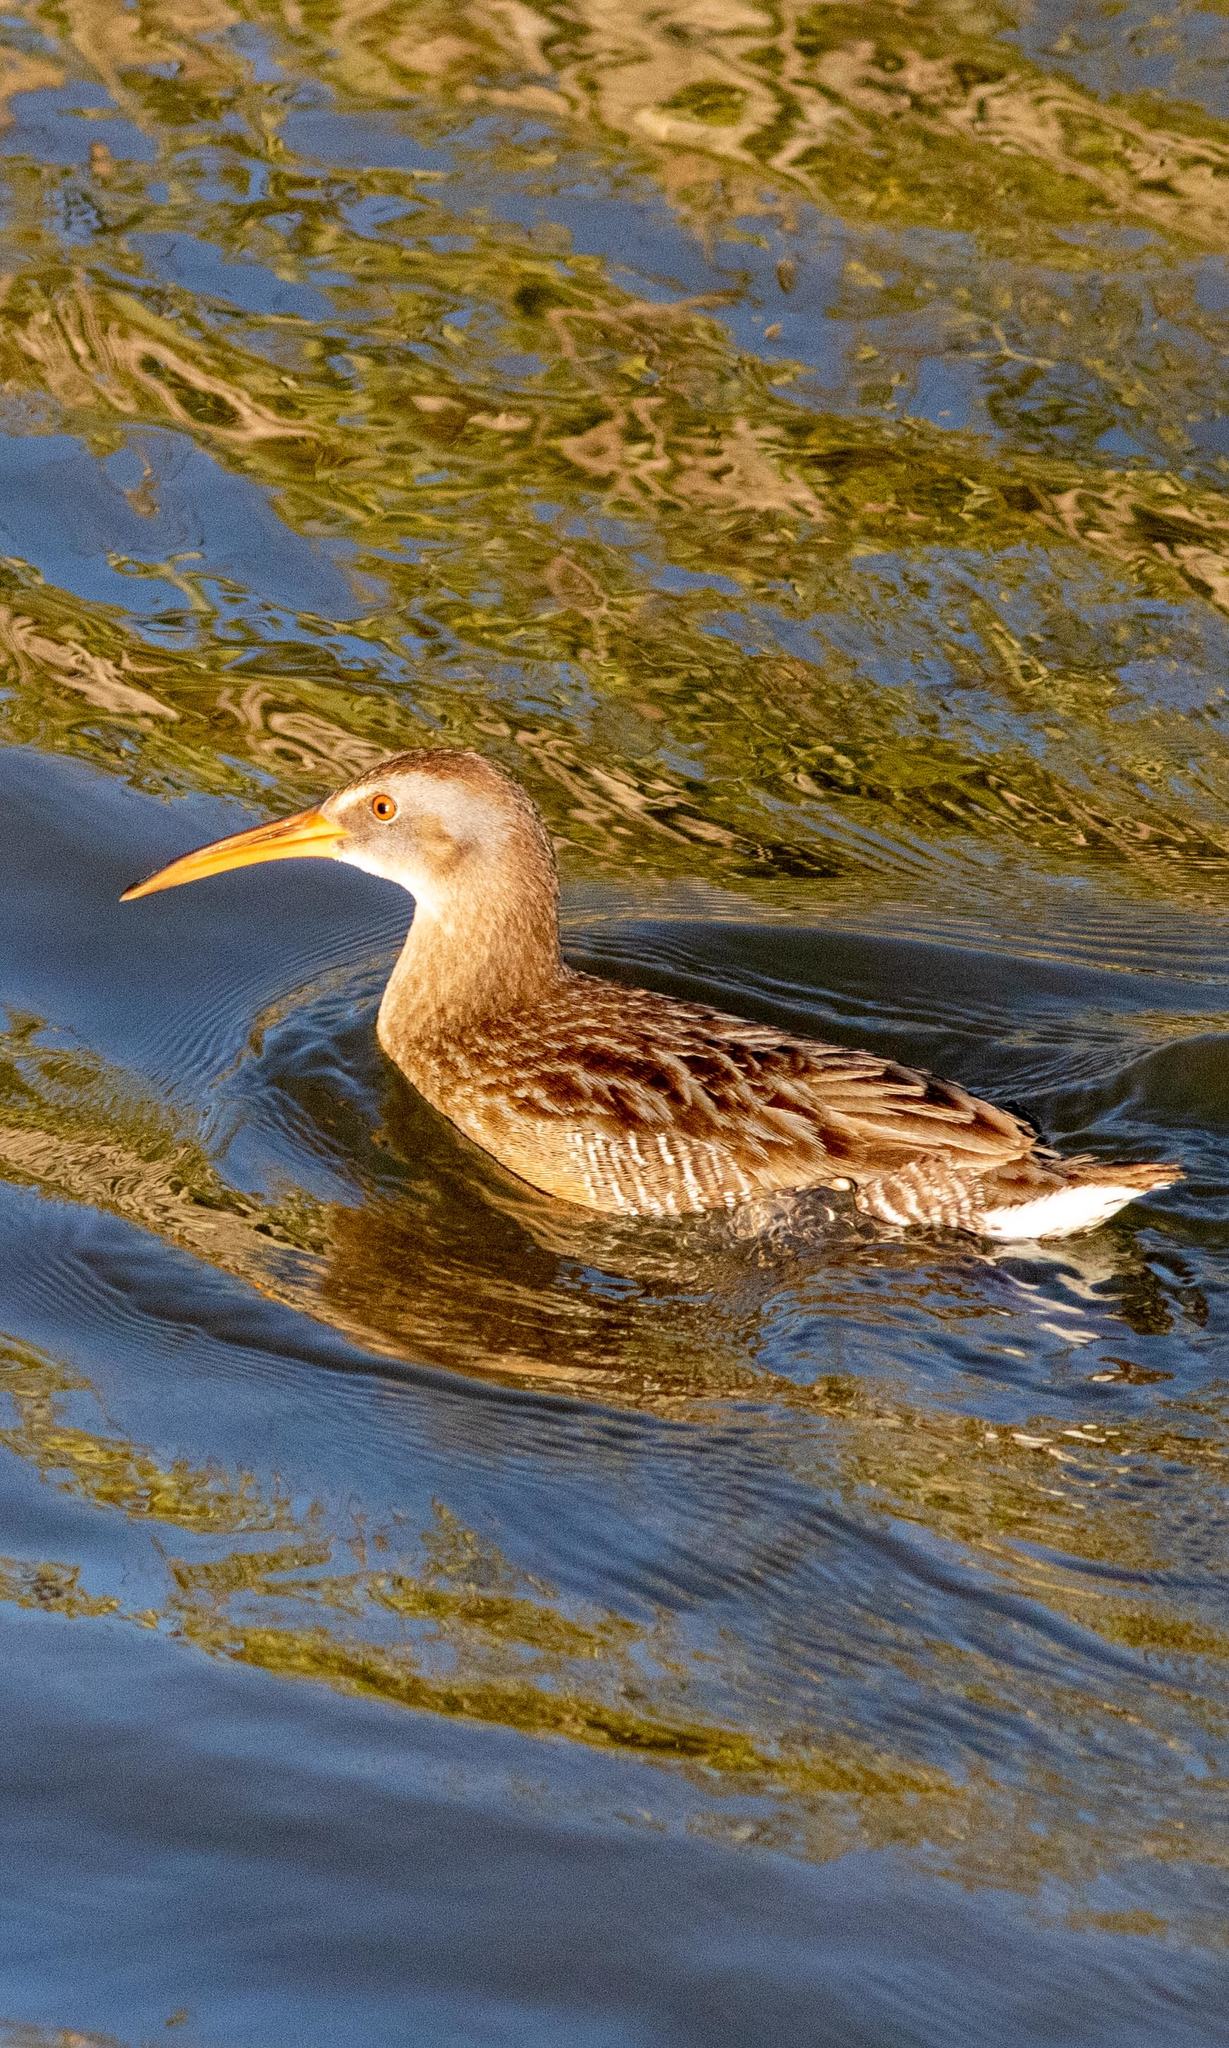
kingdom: Animalia
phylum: Chordata
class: Aves
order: Gruiformes
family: Rallidae
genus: Rallus
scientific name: Rallus crepitans
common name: Clapper rail
